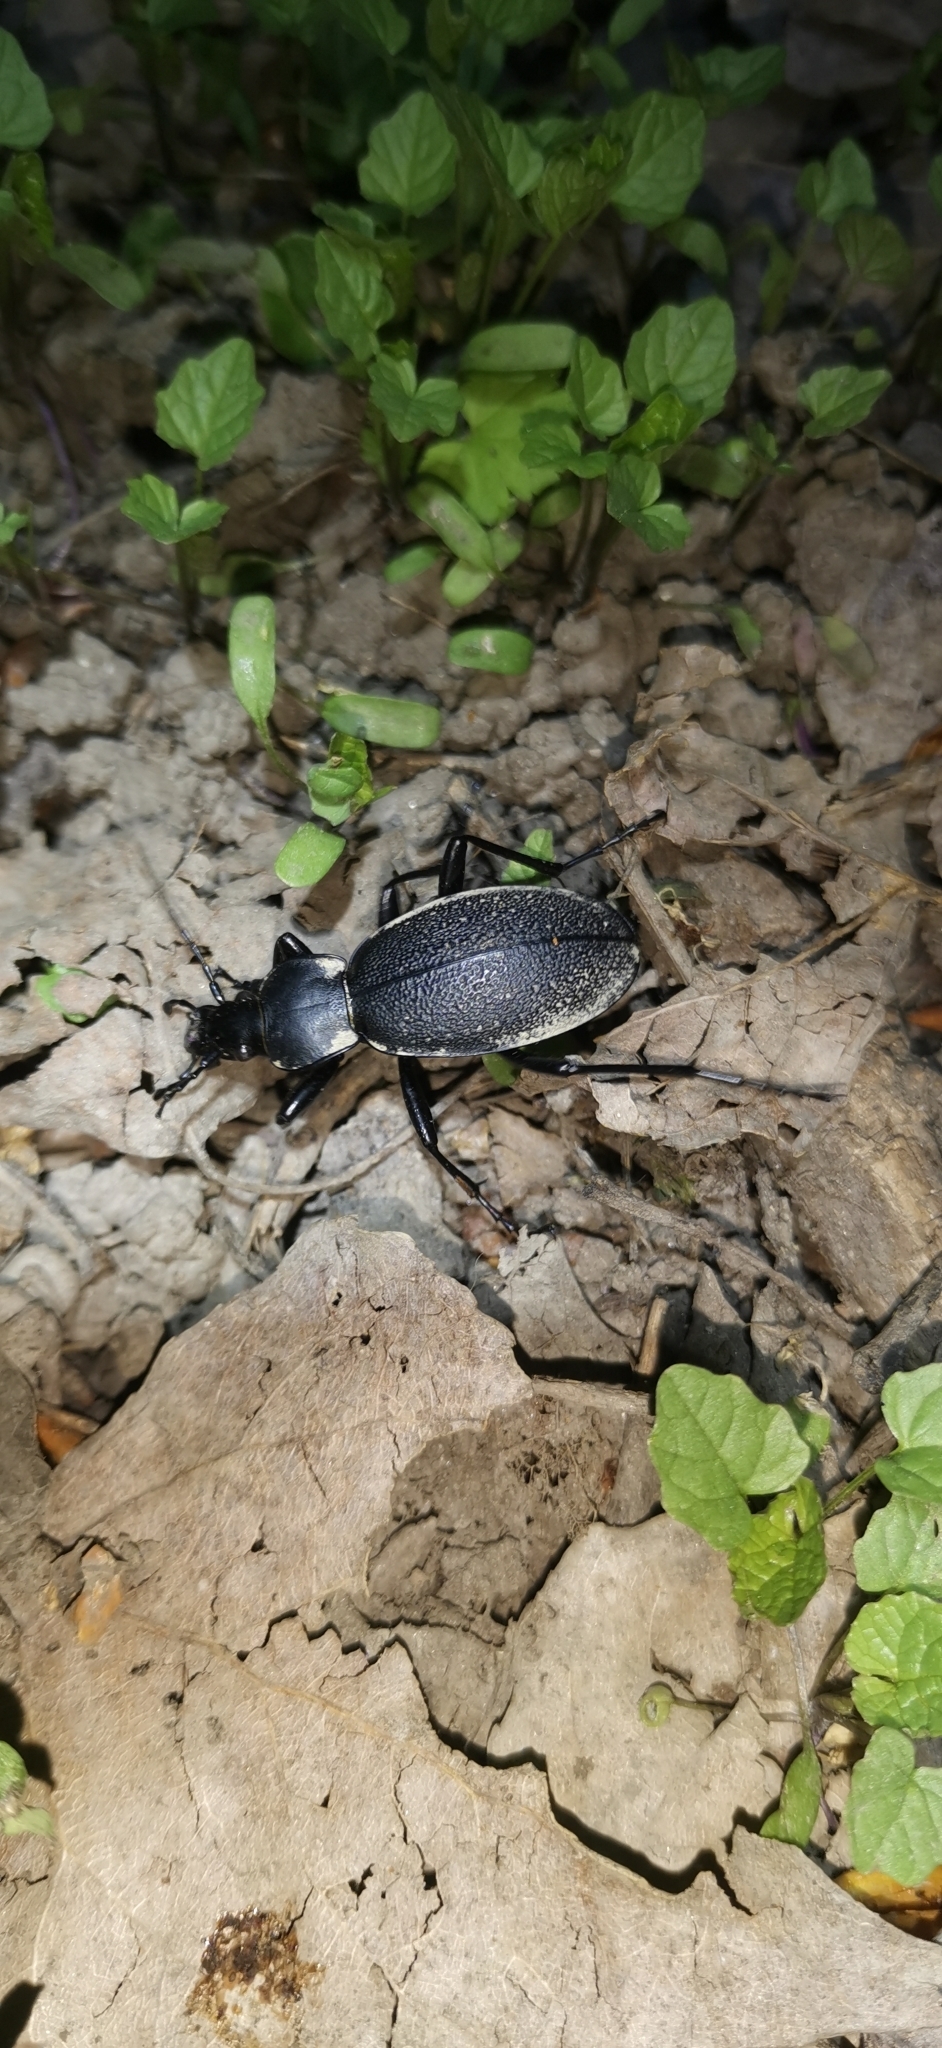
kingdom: Animalia
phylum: Arthropoda
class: Insecta
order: Coleoptera
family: Carabidae
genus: Carabus
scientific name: Carabus coriaceus
